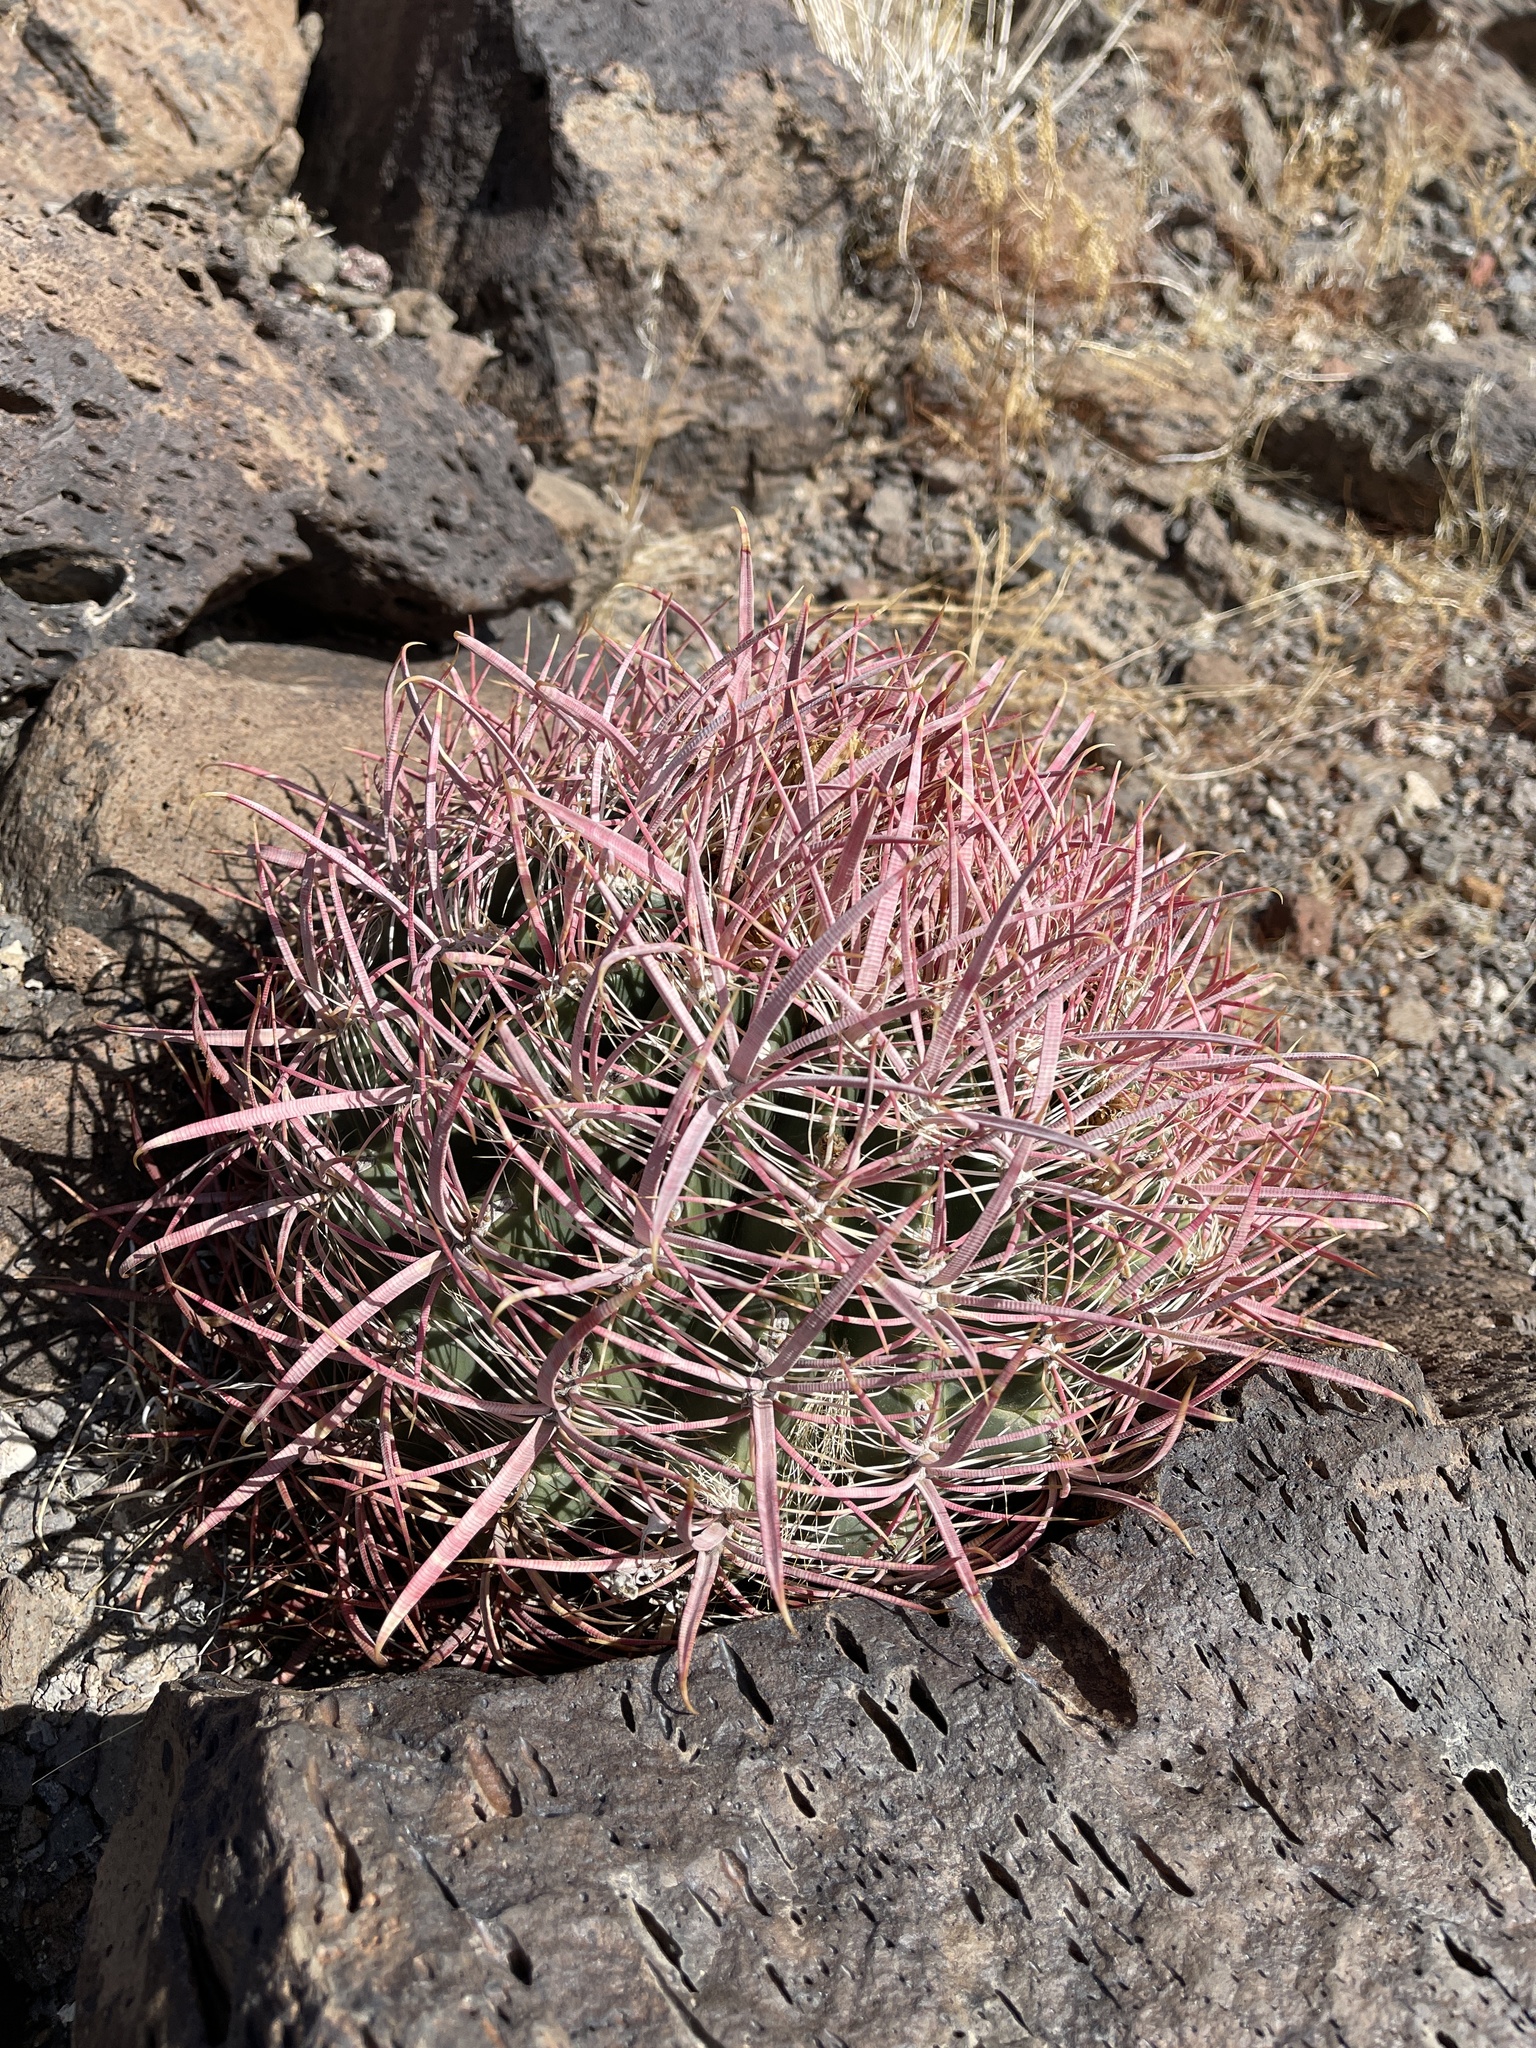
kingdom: Plantae
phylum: Tracheophyta
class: Magnoliopsida
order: Caryophyllales
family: Cactaceae
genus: Ferocactus
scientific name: Ferocactus cylindraceus
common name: California barrel cactus
